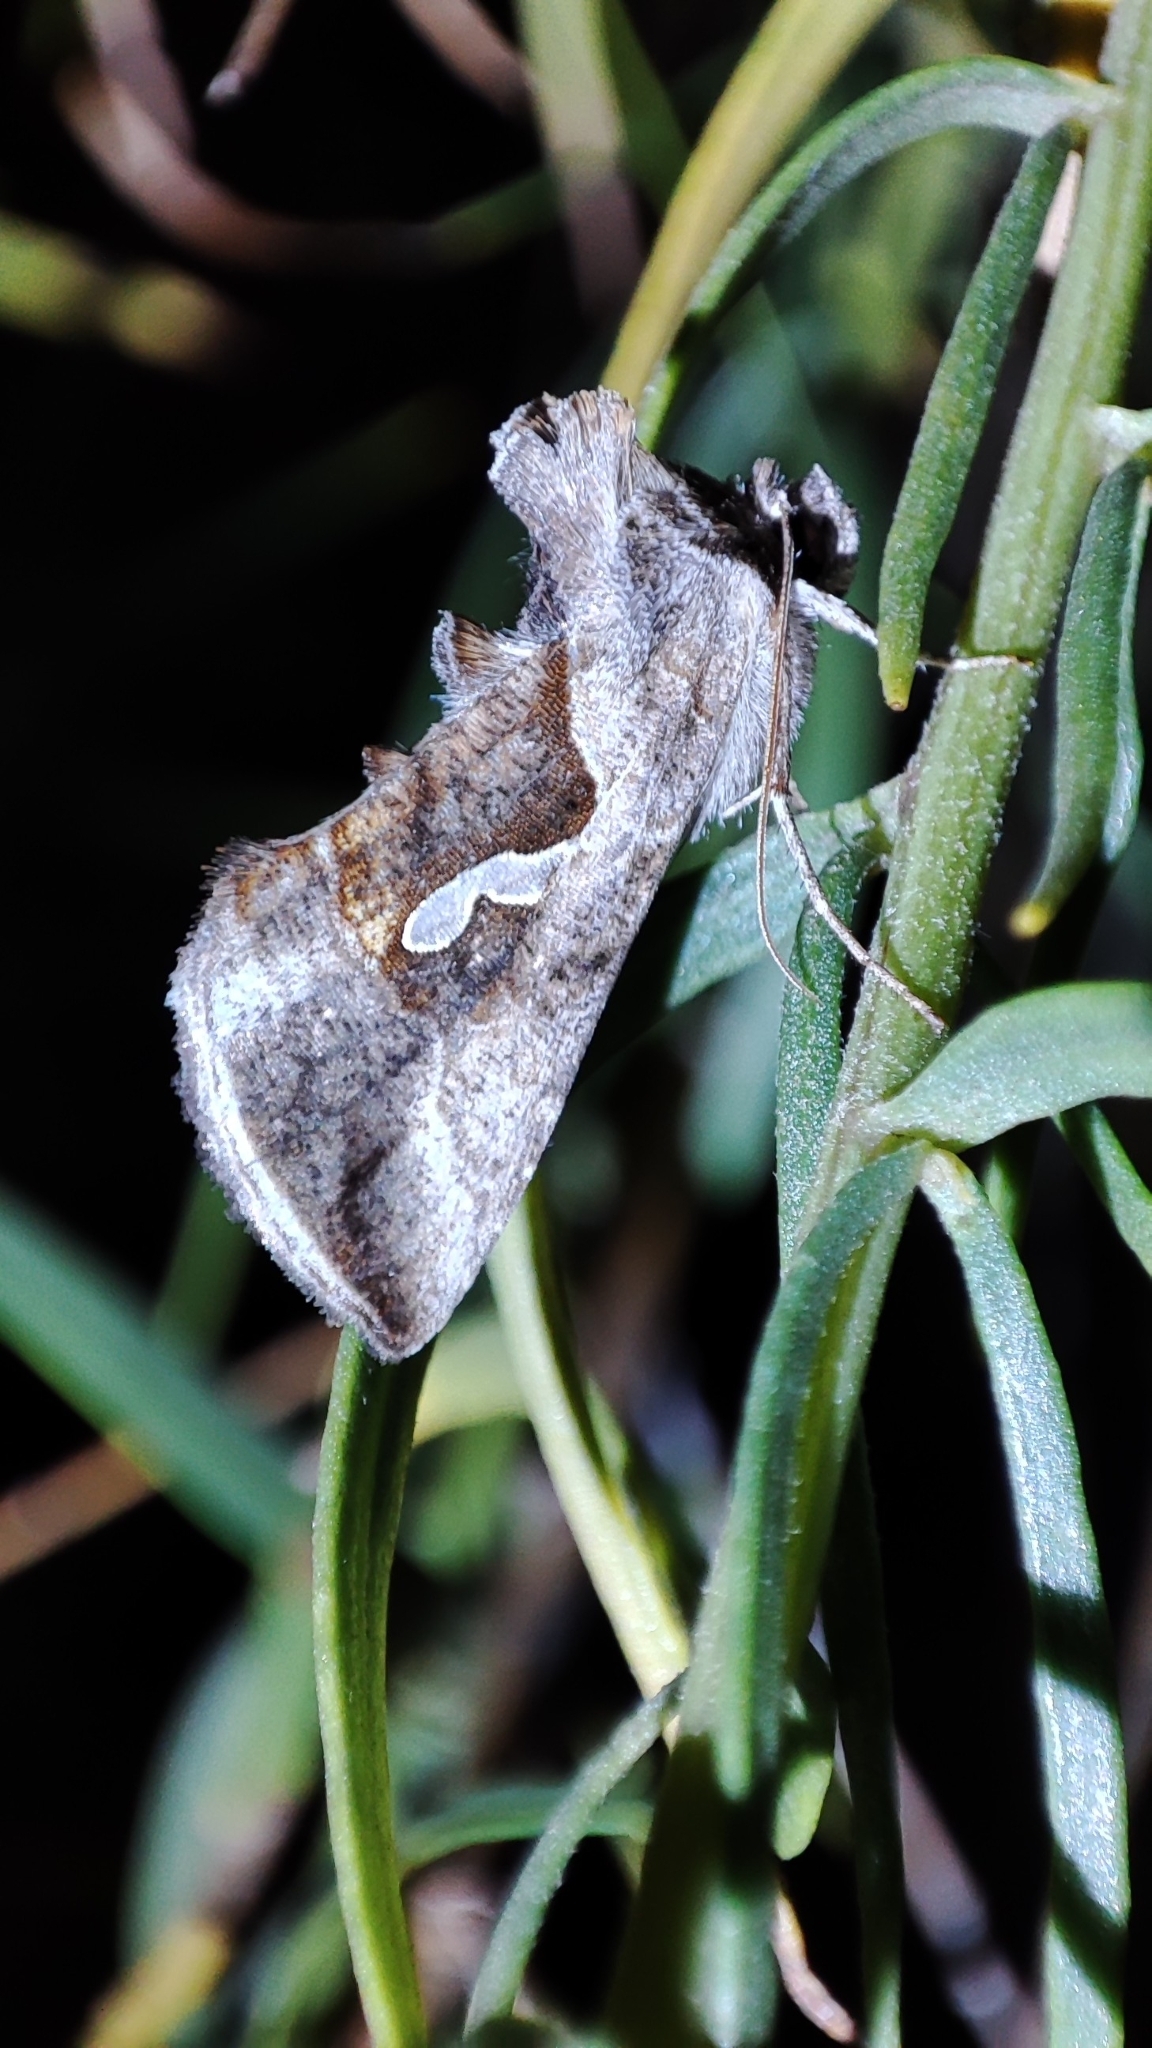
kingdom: Animalia
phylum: Arthropoda
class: Insecta
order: Lepidoptera
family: Noctuidae
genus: Macdunnoughia
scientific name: Macdunnoughia confusa
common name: Dewick's plusia
